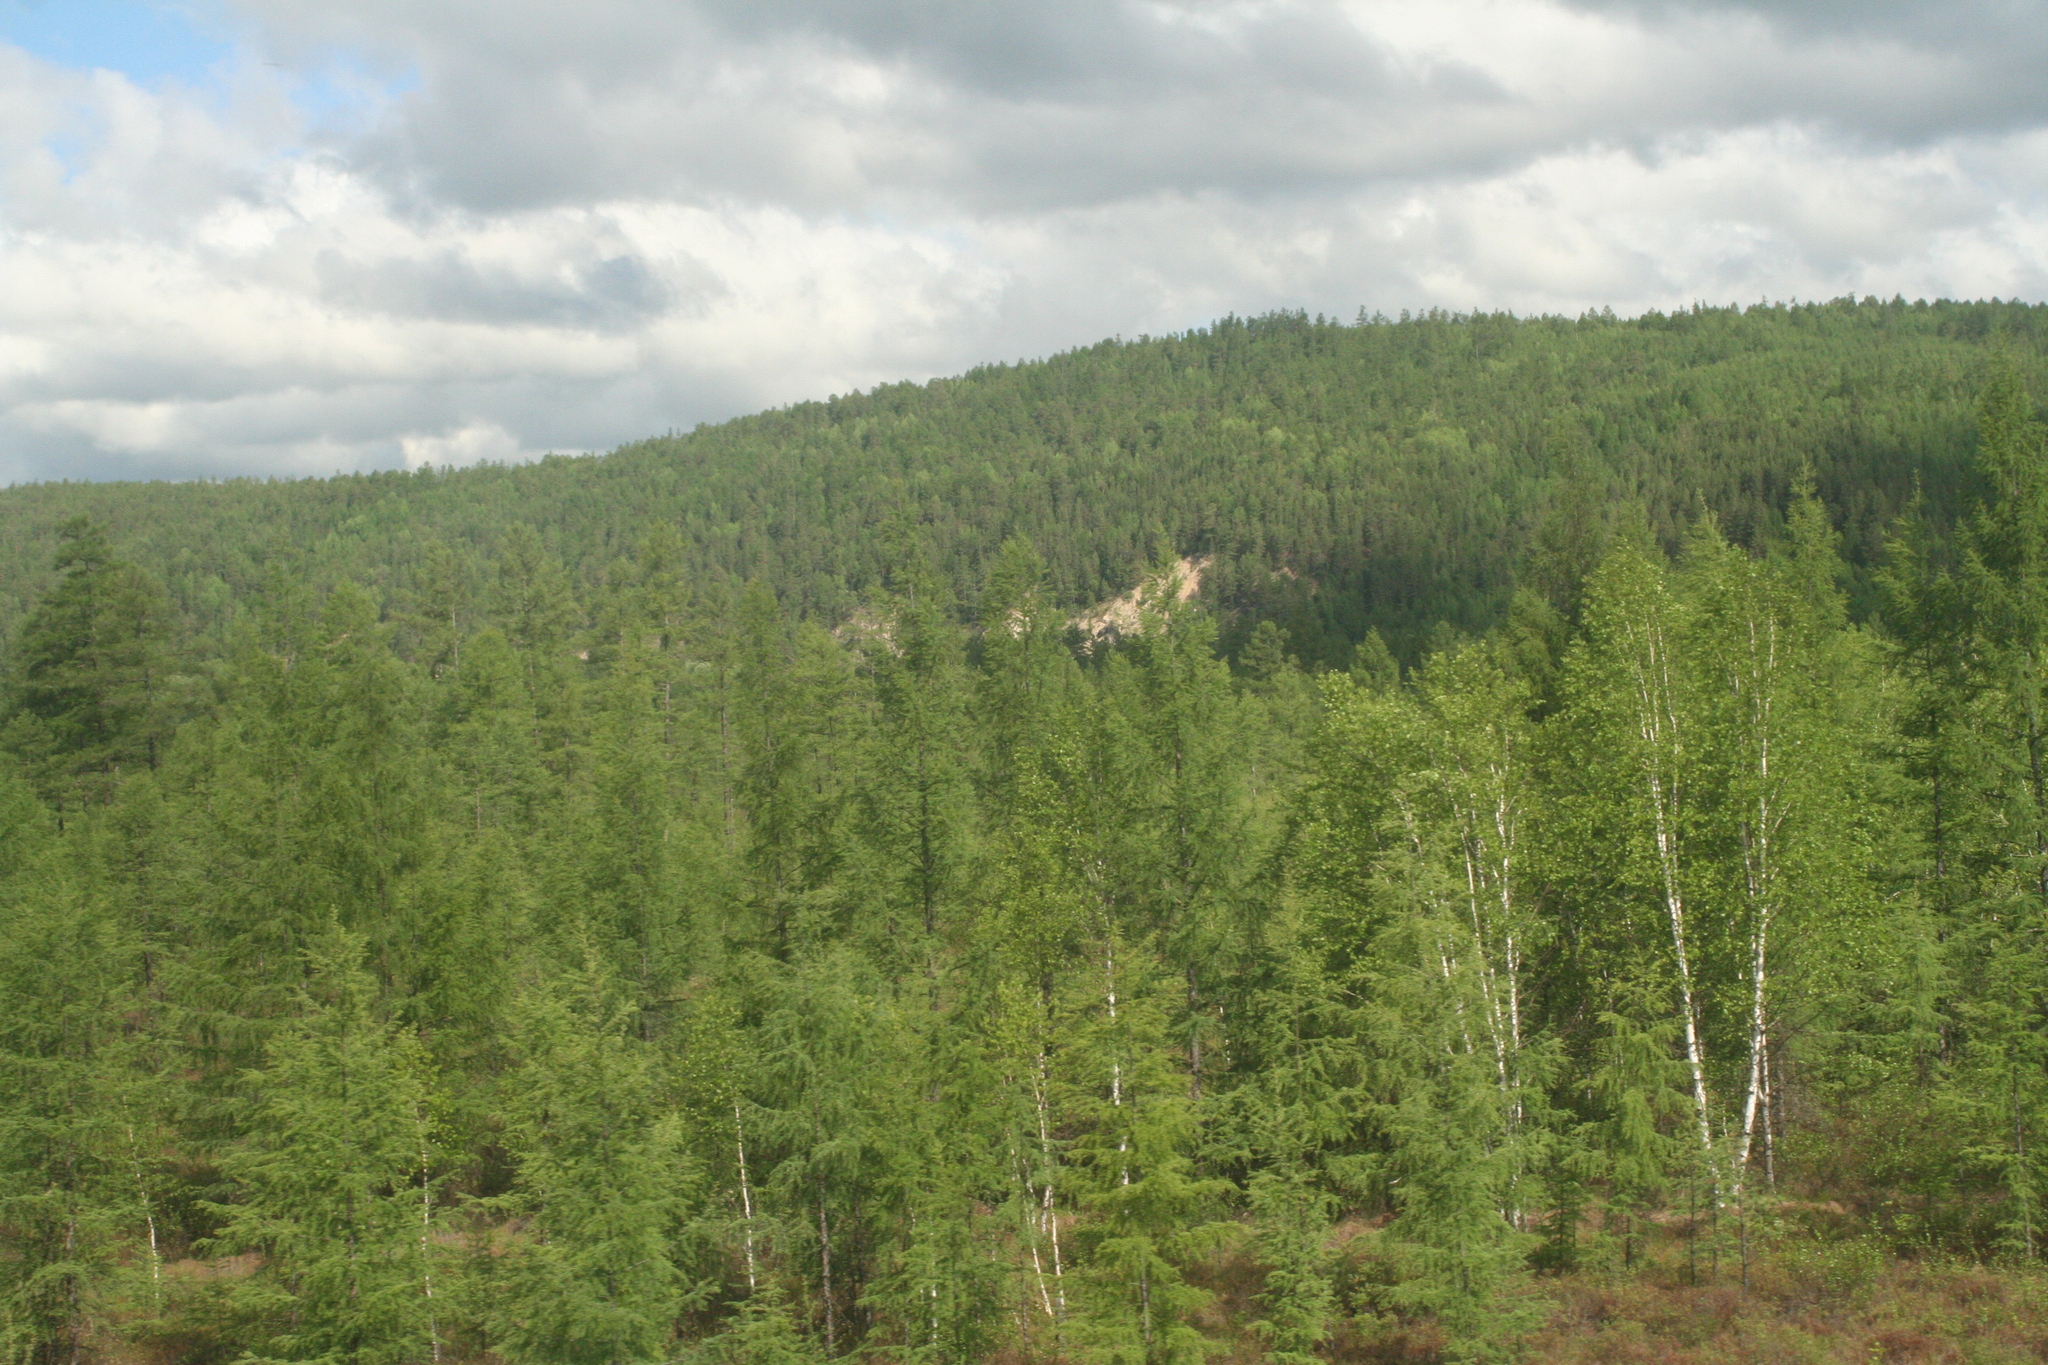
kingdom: Plantae
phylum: Tracheophyta
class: Pinopsida
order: Pinales
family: Pinaceae
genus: Larix
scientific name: Larix gmelinii
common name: Dahurian larch
